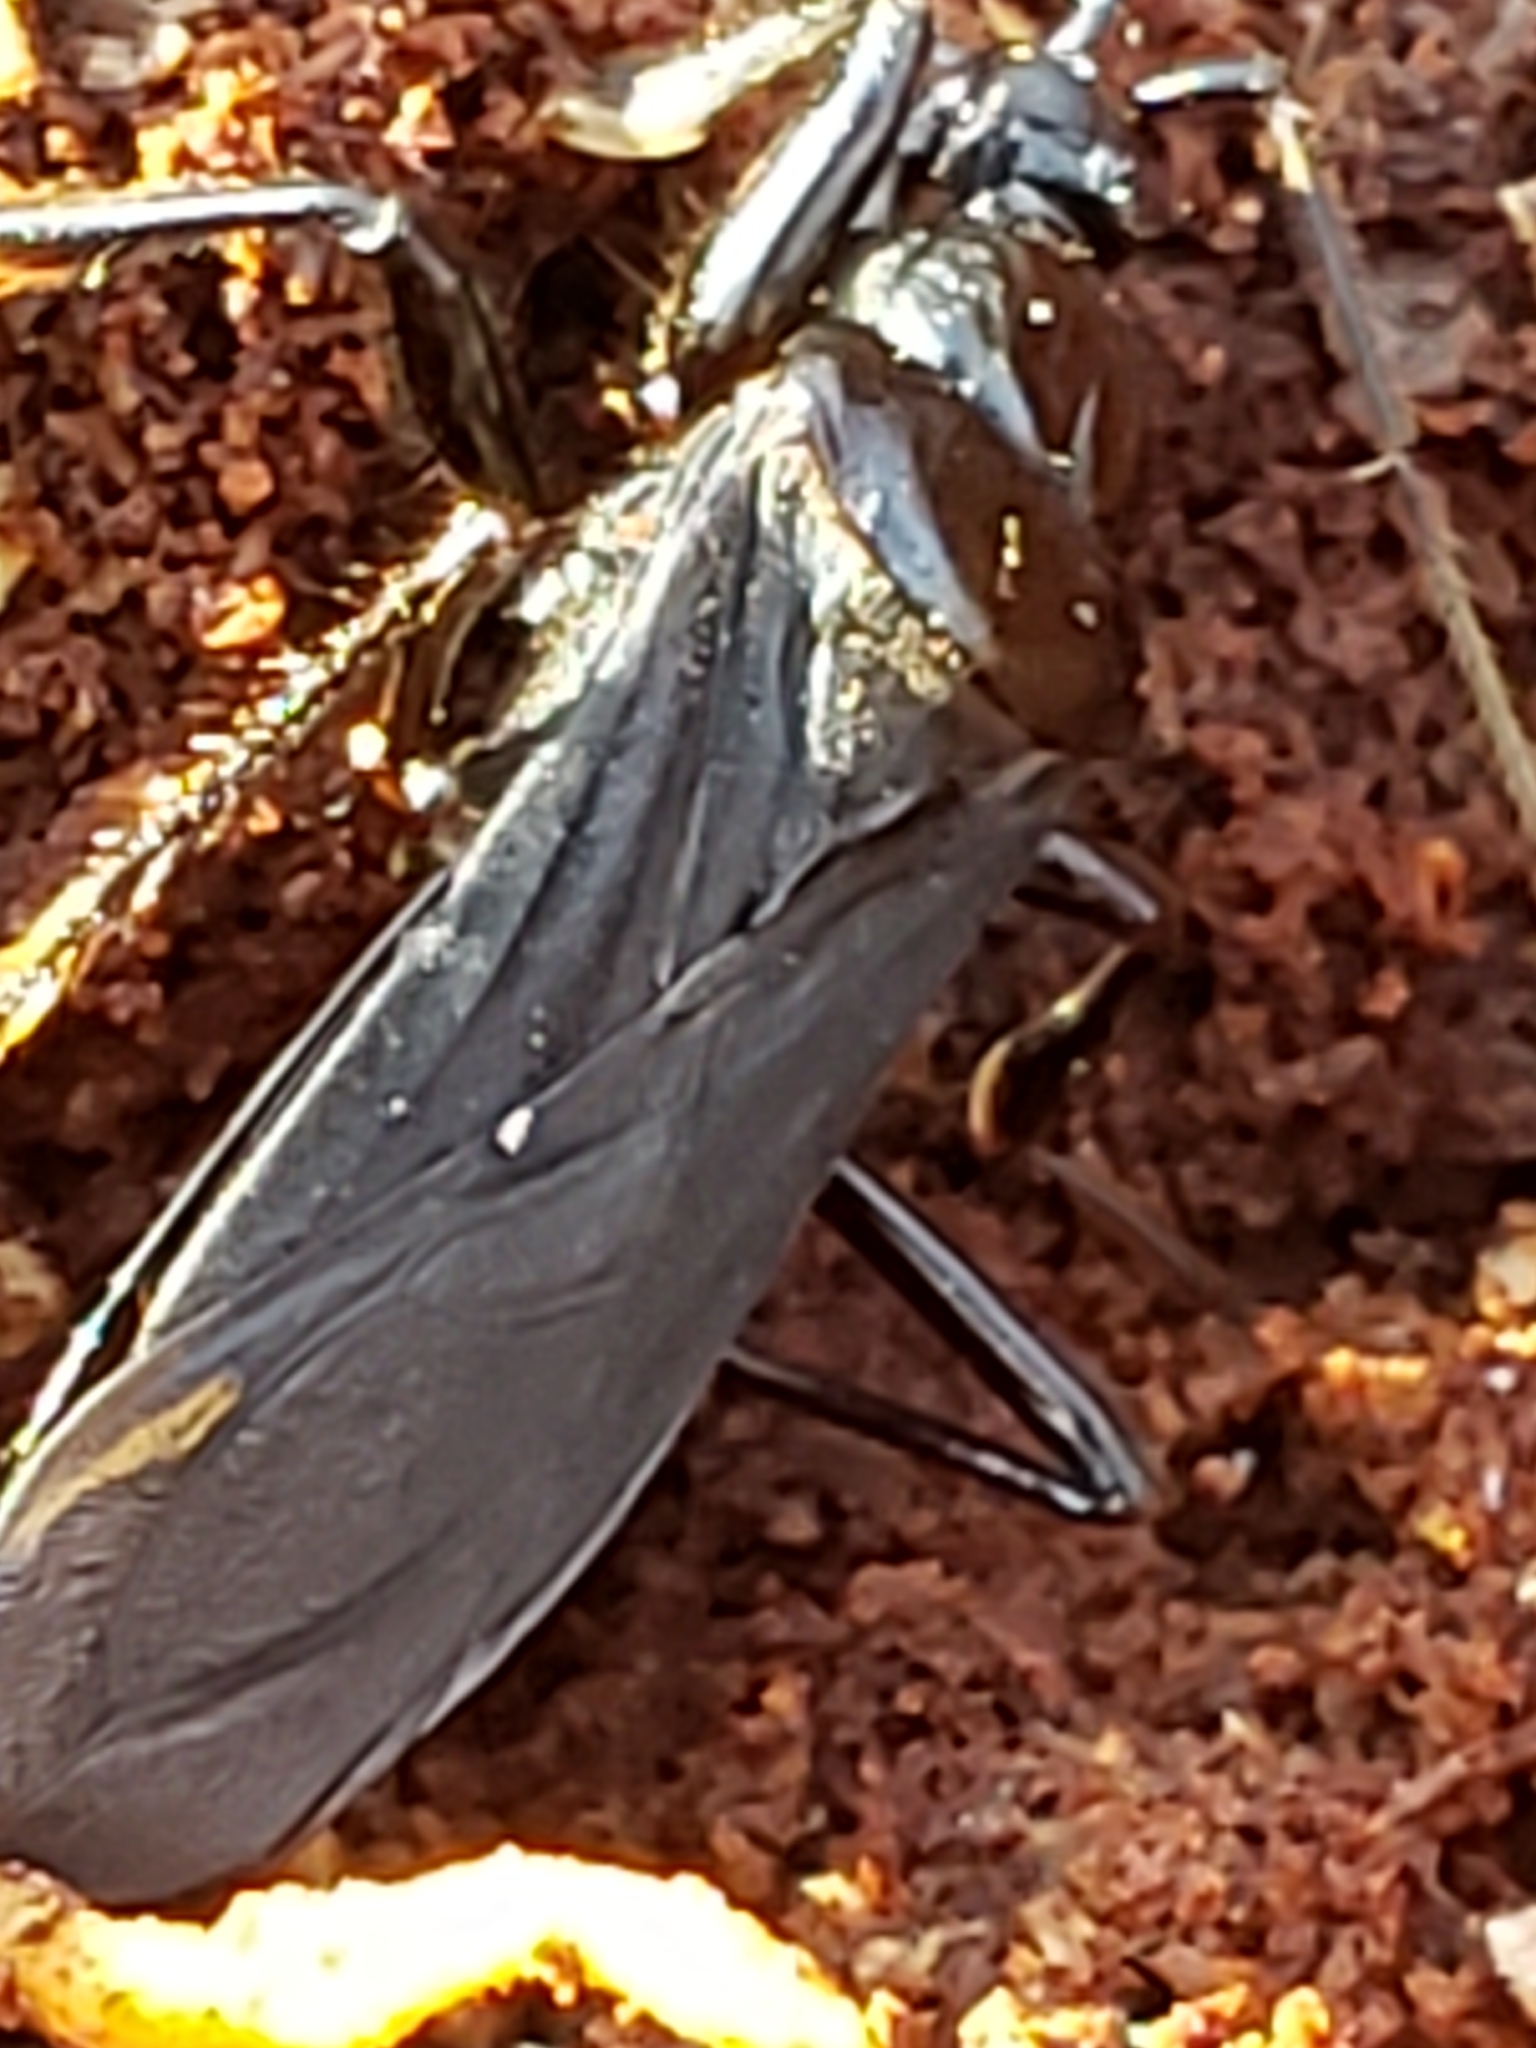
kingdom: Animalia
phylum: Arthropoda
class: Insecta
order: Hemiptera
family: Reduviidae
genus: Melanolestes
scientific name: Melanolestes picipes
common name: Assassin bug
